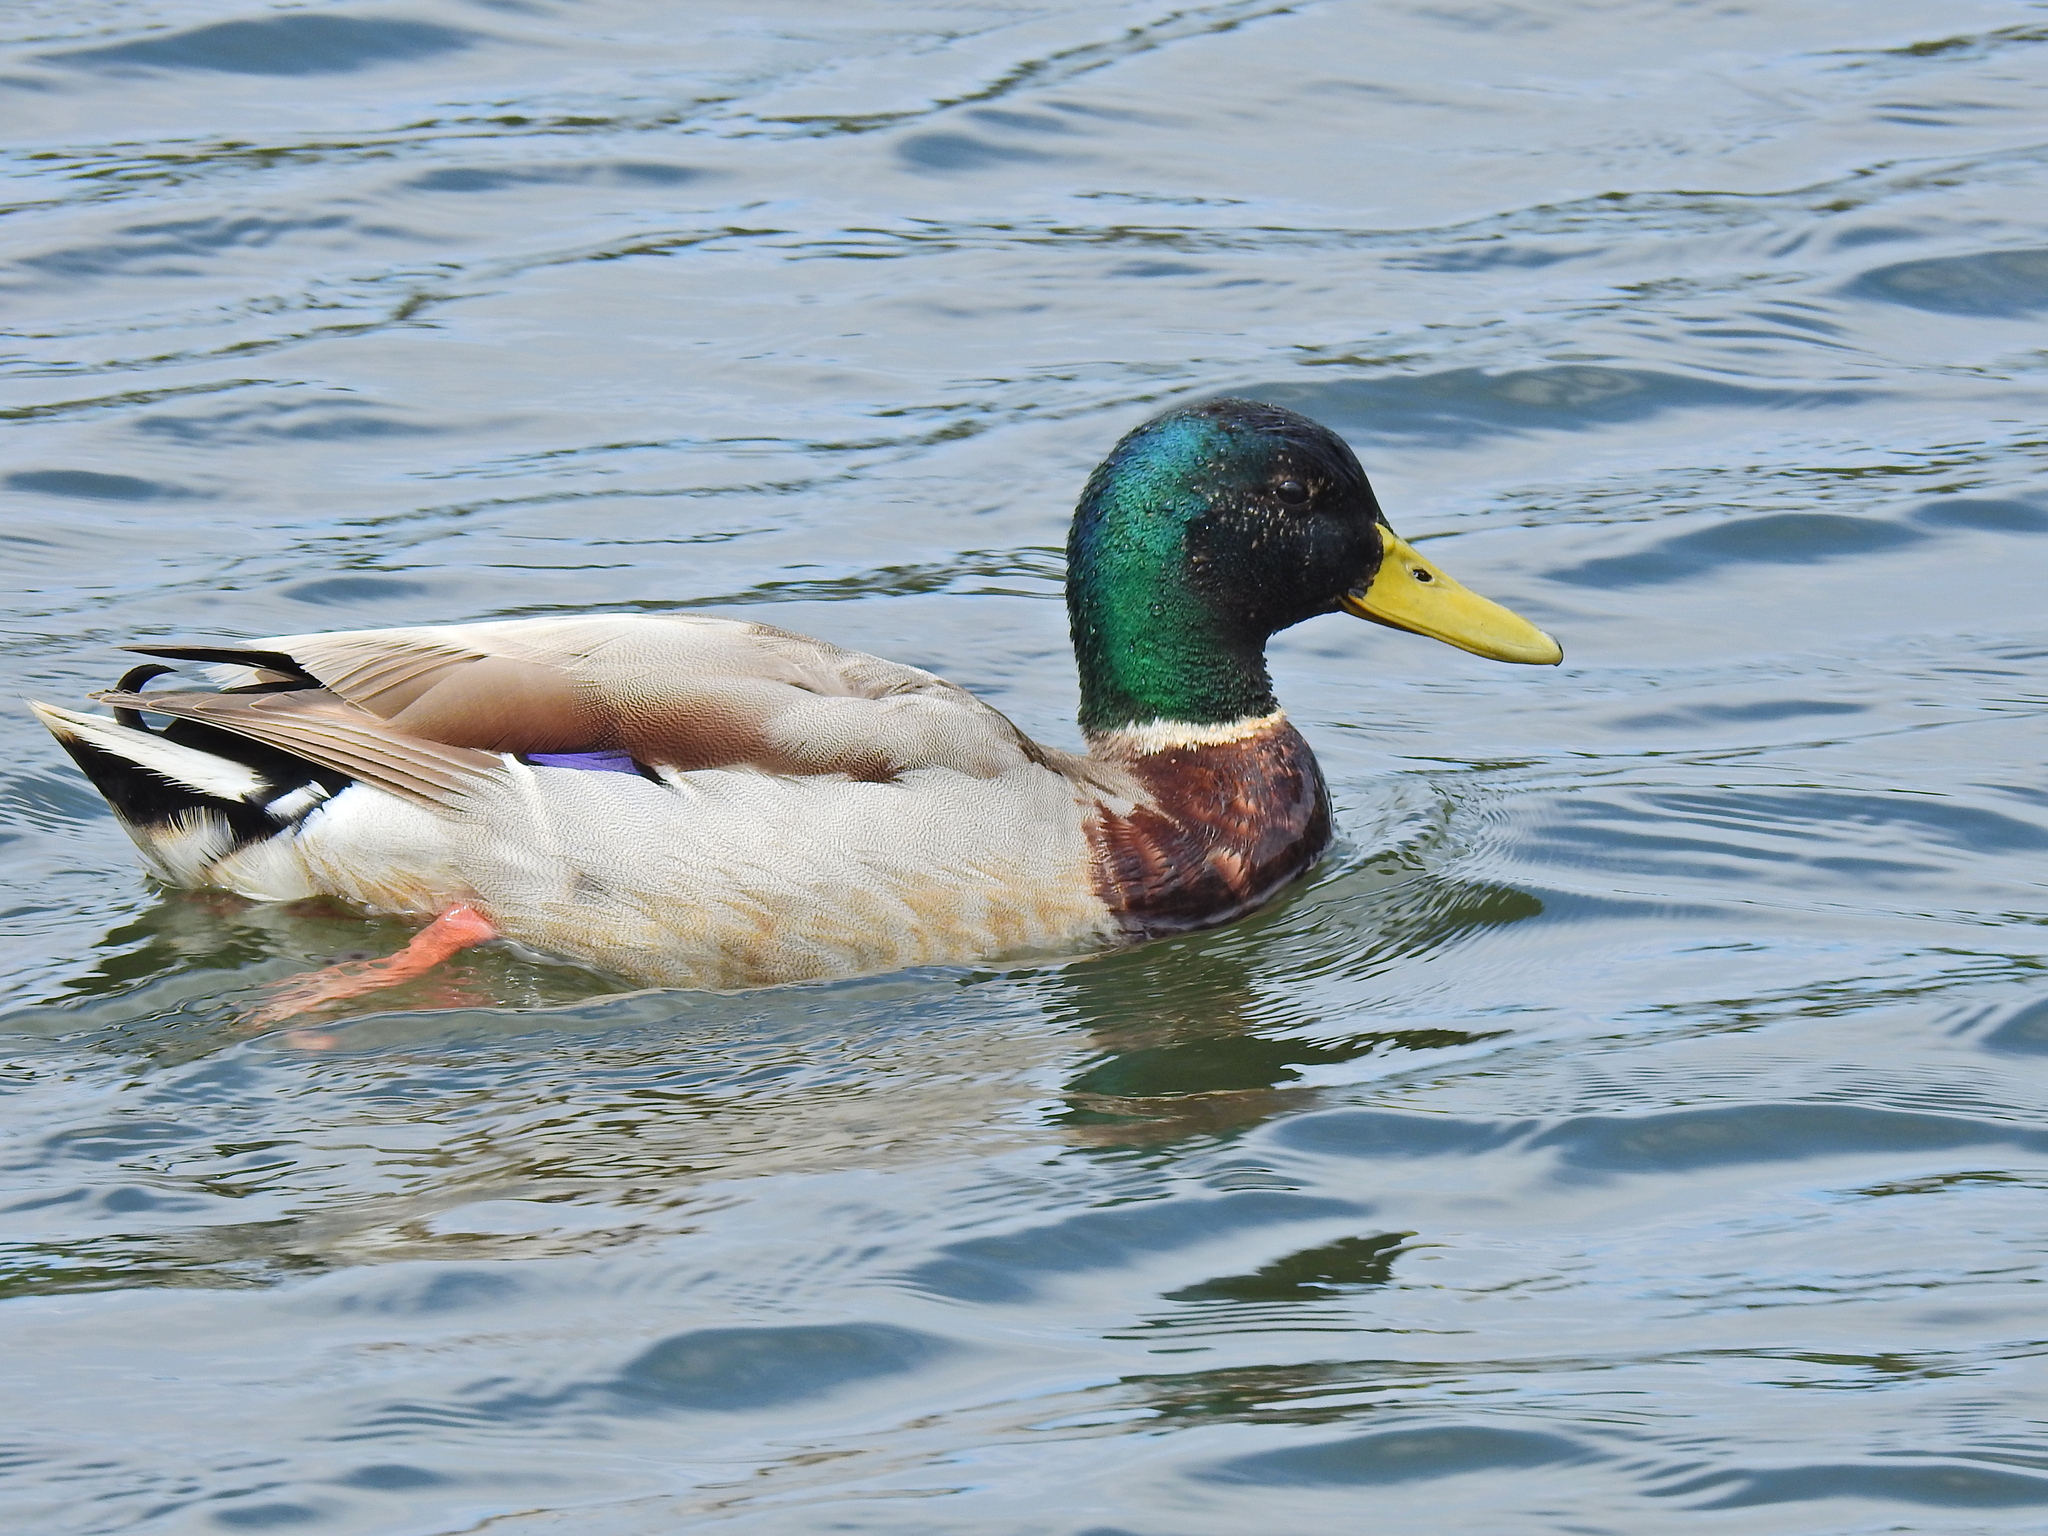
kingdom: Animalia
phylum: Chordata
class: Aves
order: Anseriformes
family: Anatidae
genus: Anas
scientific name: Anas platyrhynchos
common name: Mallard
